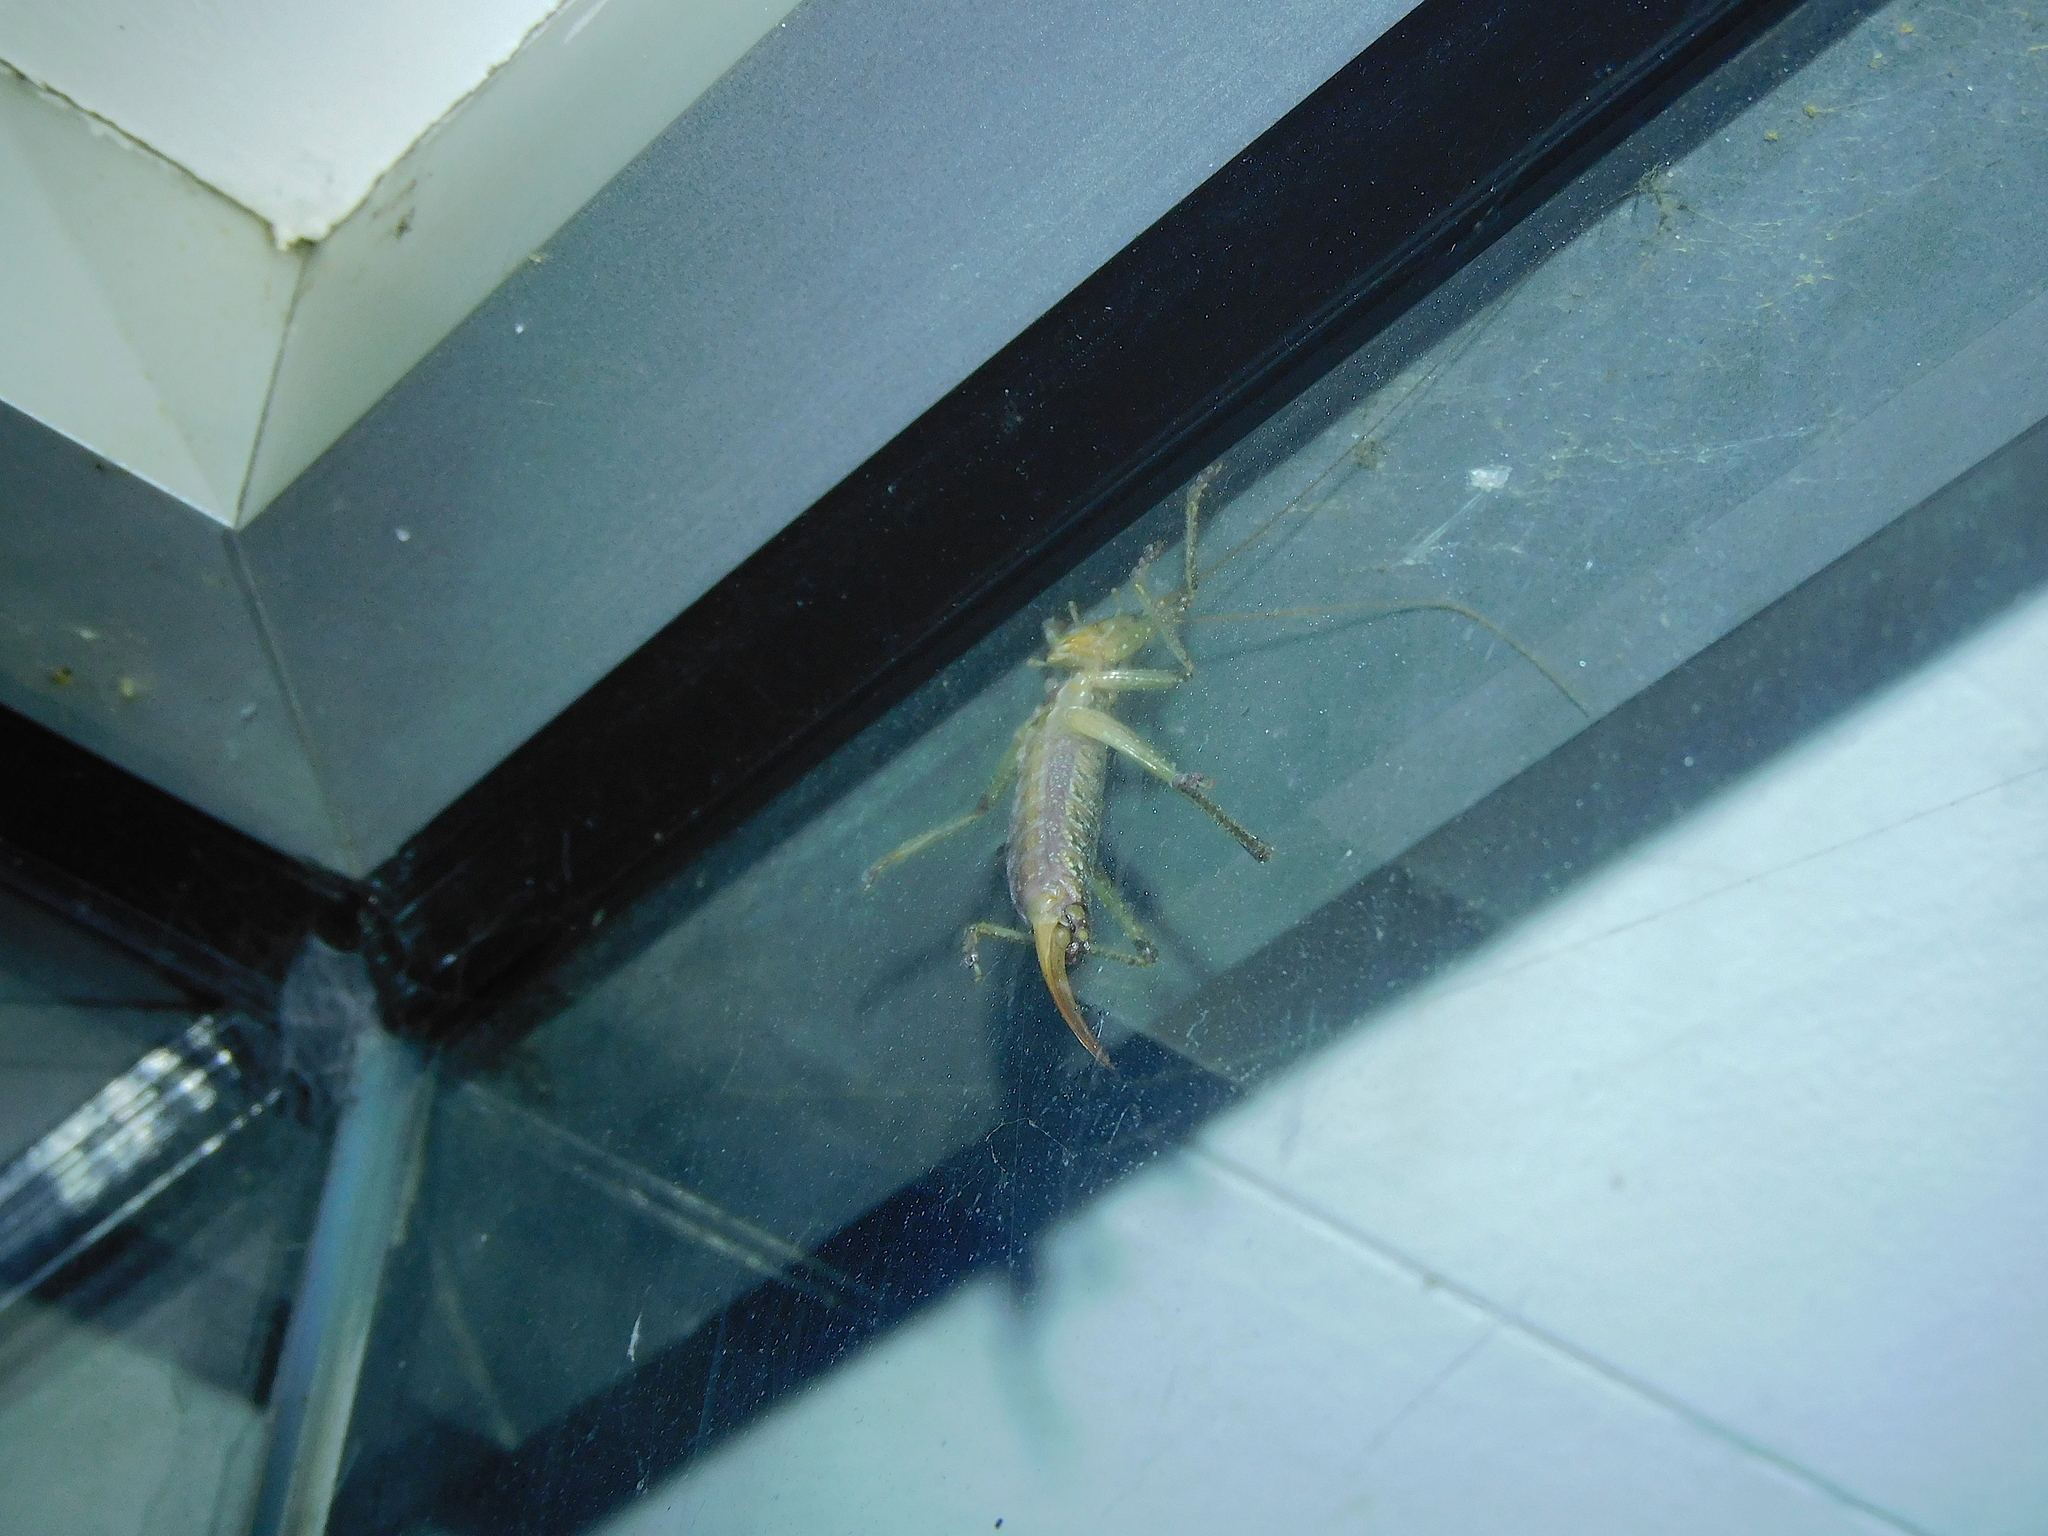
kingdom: Animalia
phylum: Arthropoda
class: Insecta
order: Orthoptera
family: Tettigoniidae
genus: Coptaspis
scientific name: Coptaspis lateralis
